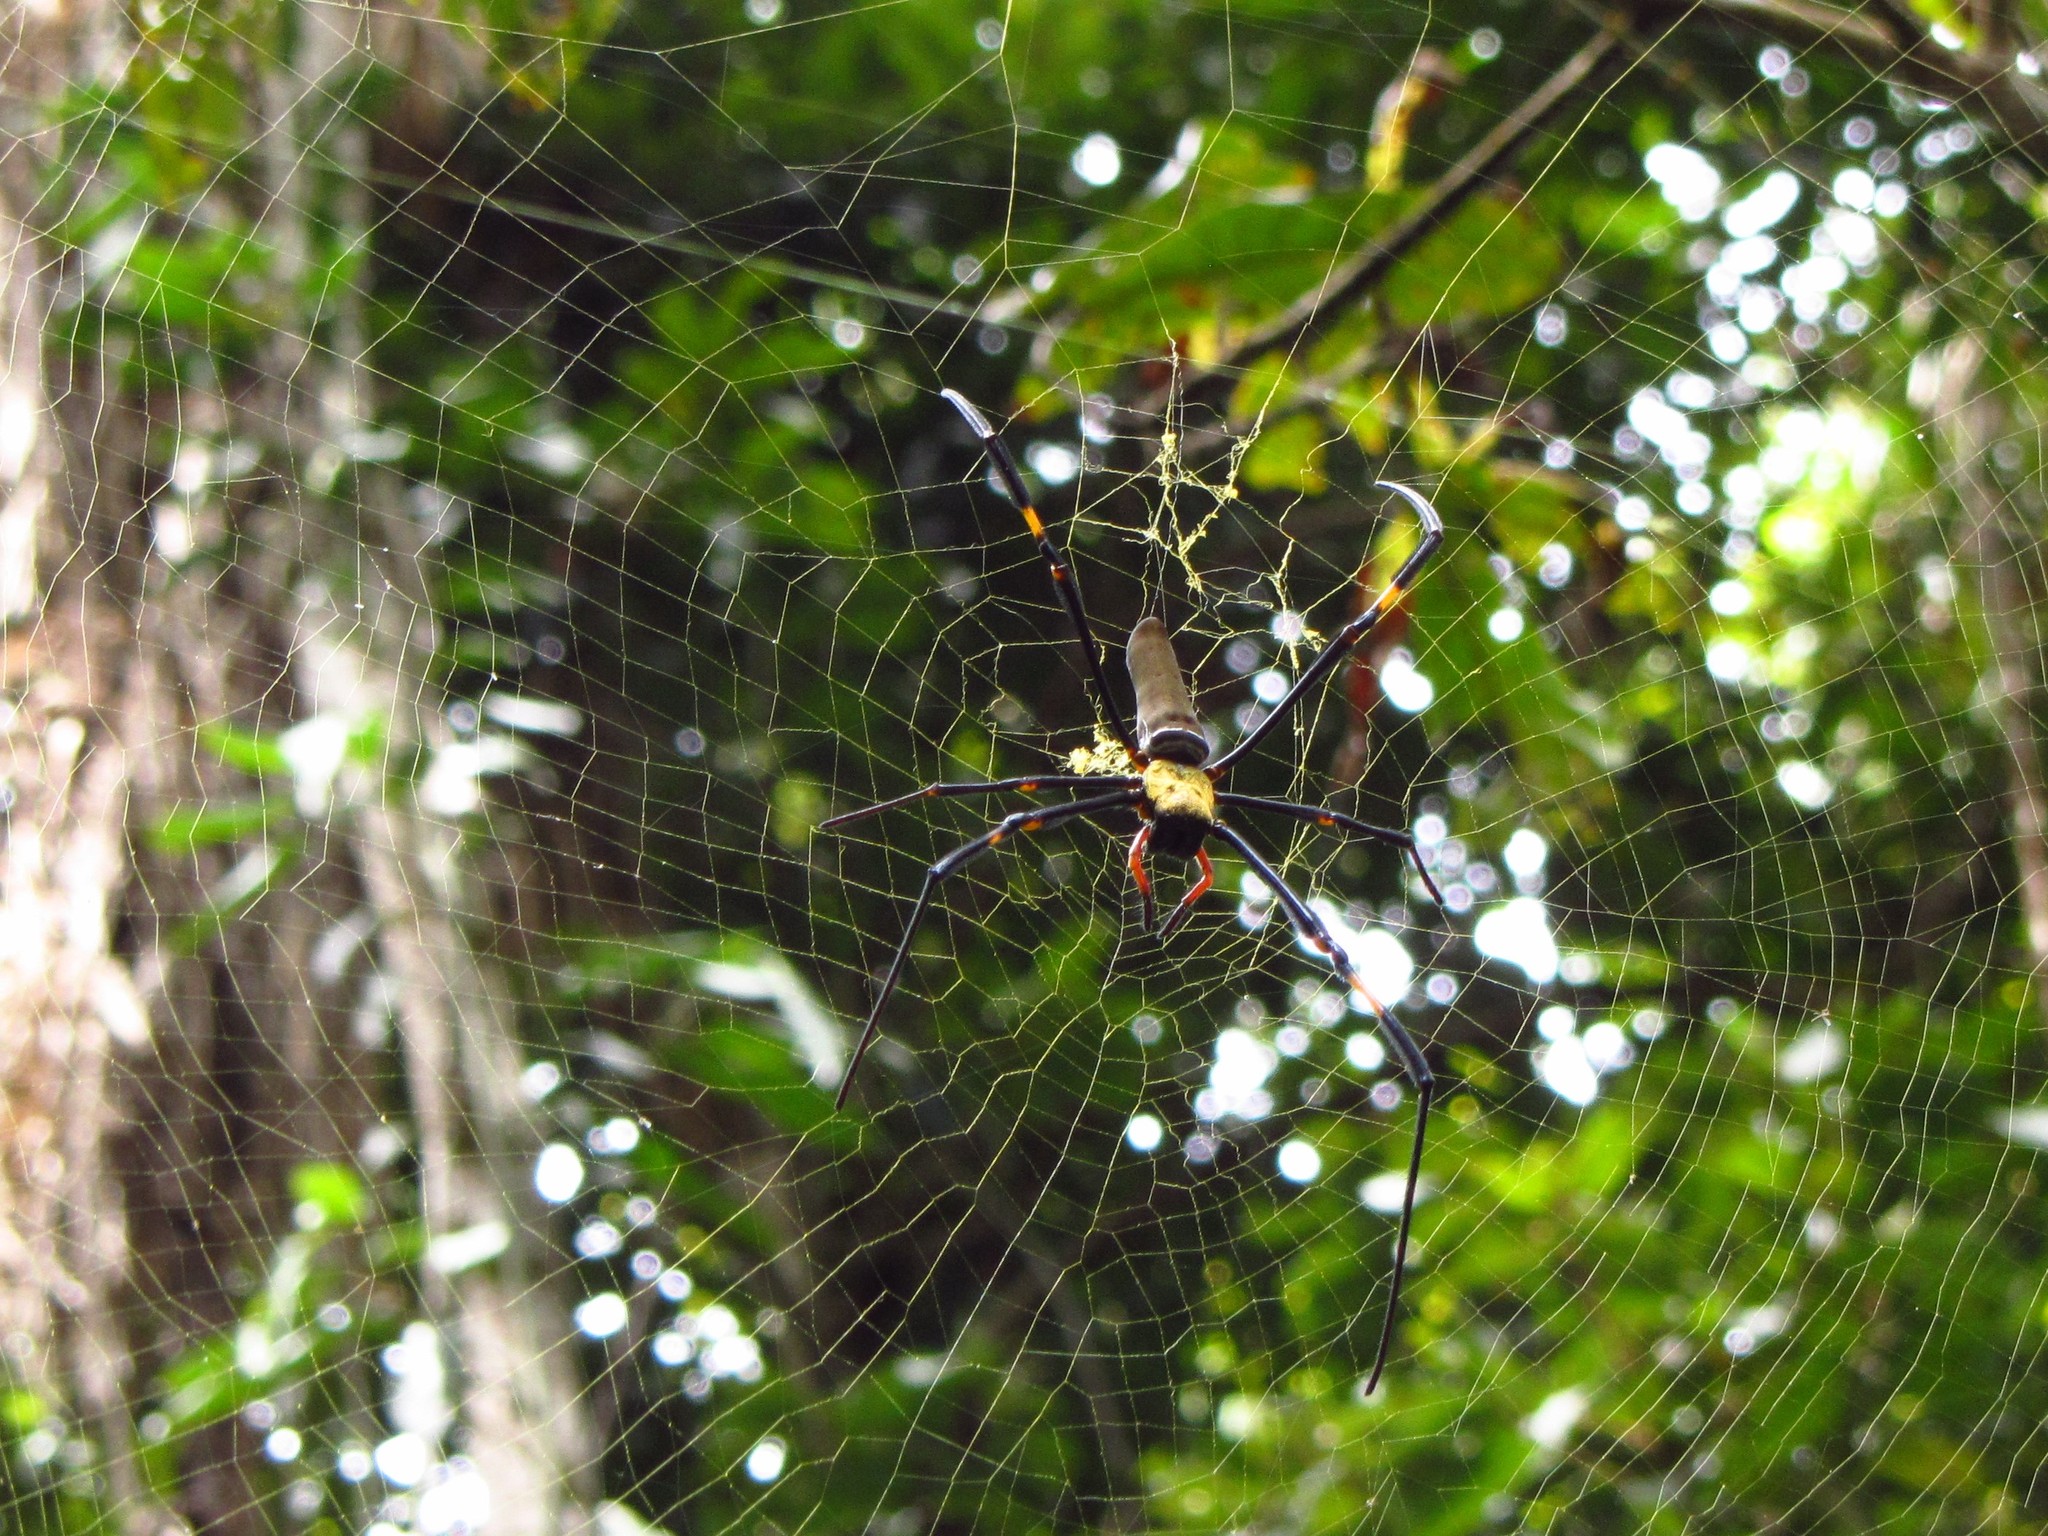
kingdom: Animalia
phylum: Arthropoda
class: Arachnida
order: Araneae
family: Araneidae
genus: Nephila
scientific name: Nephila pilipes
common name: Giant golden orb weaver
